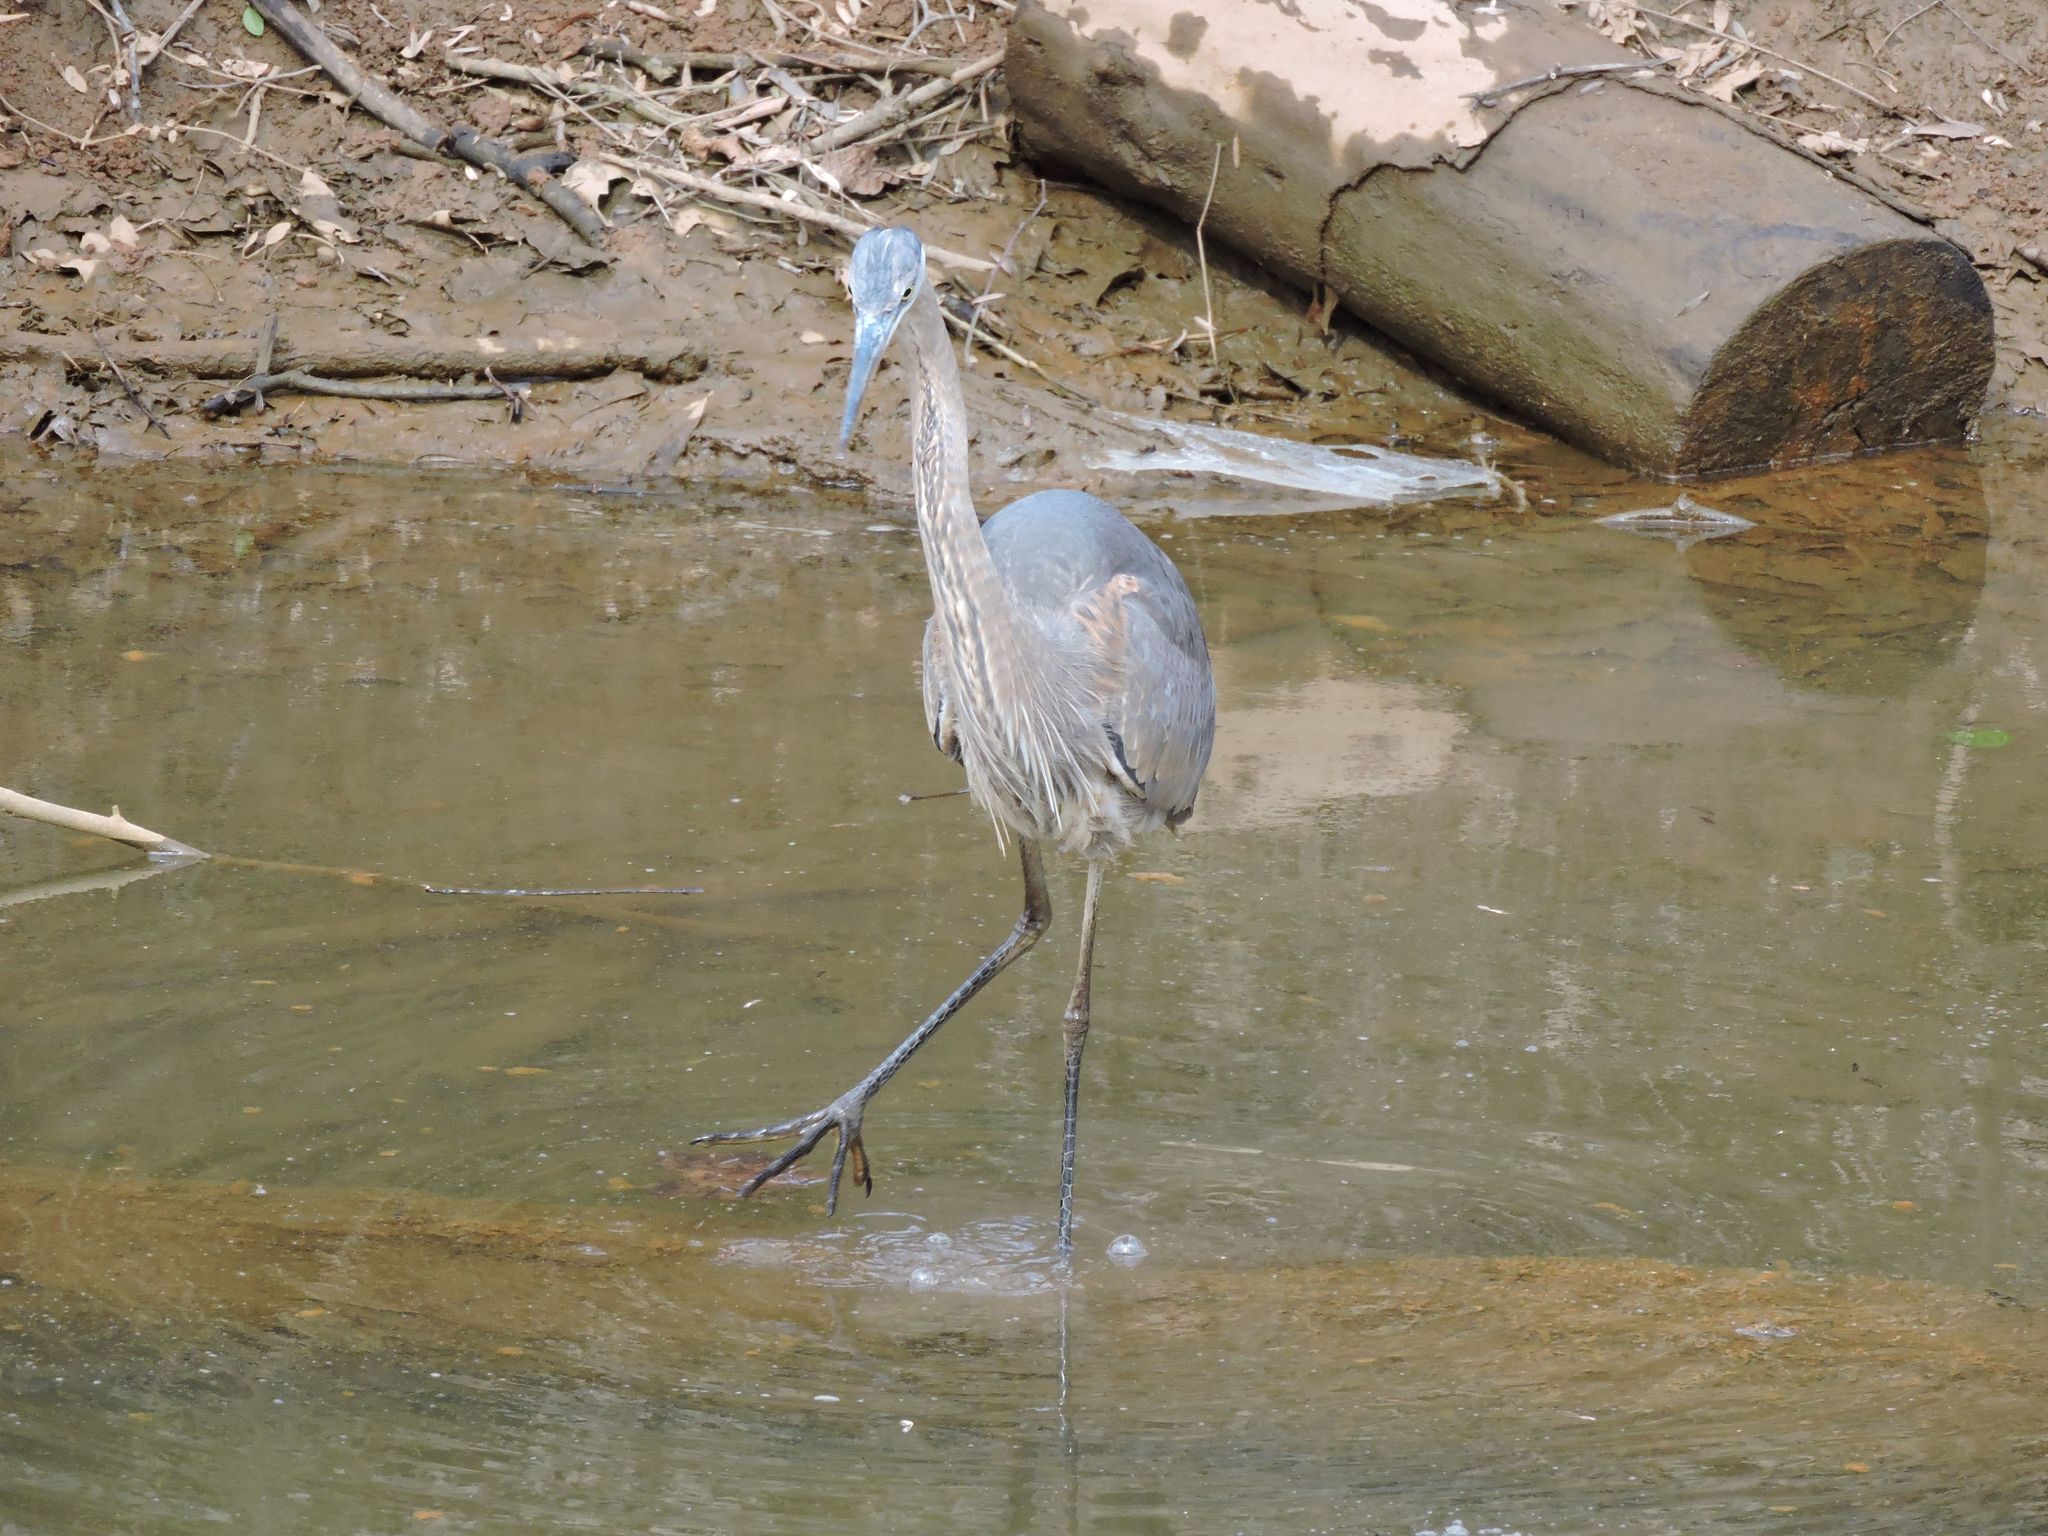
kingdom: Animalia
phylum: Chordata
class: Aves
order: Pelecaniformes
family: Ardeidae
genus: Ardea
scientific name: Ardea herodias
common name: Great blue heron
